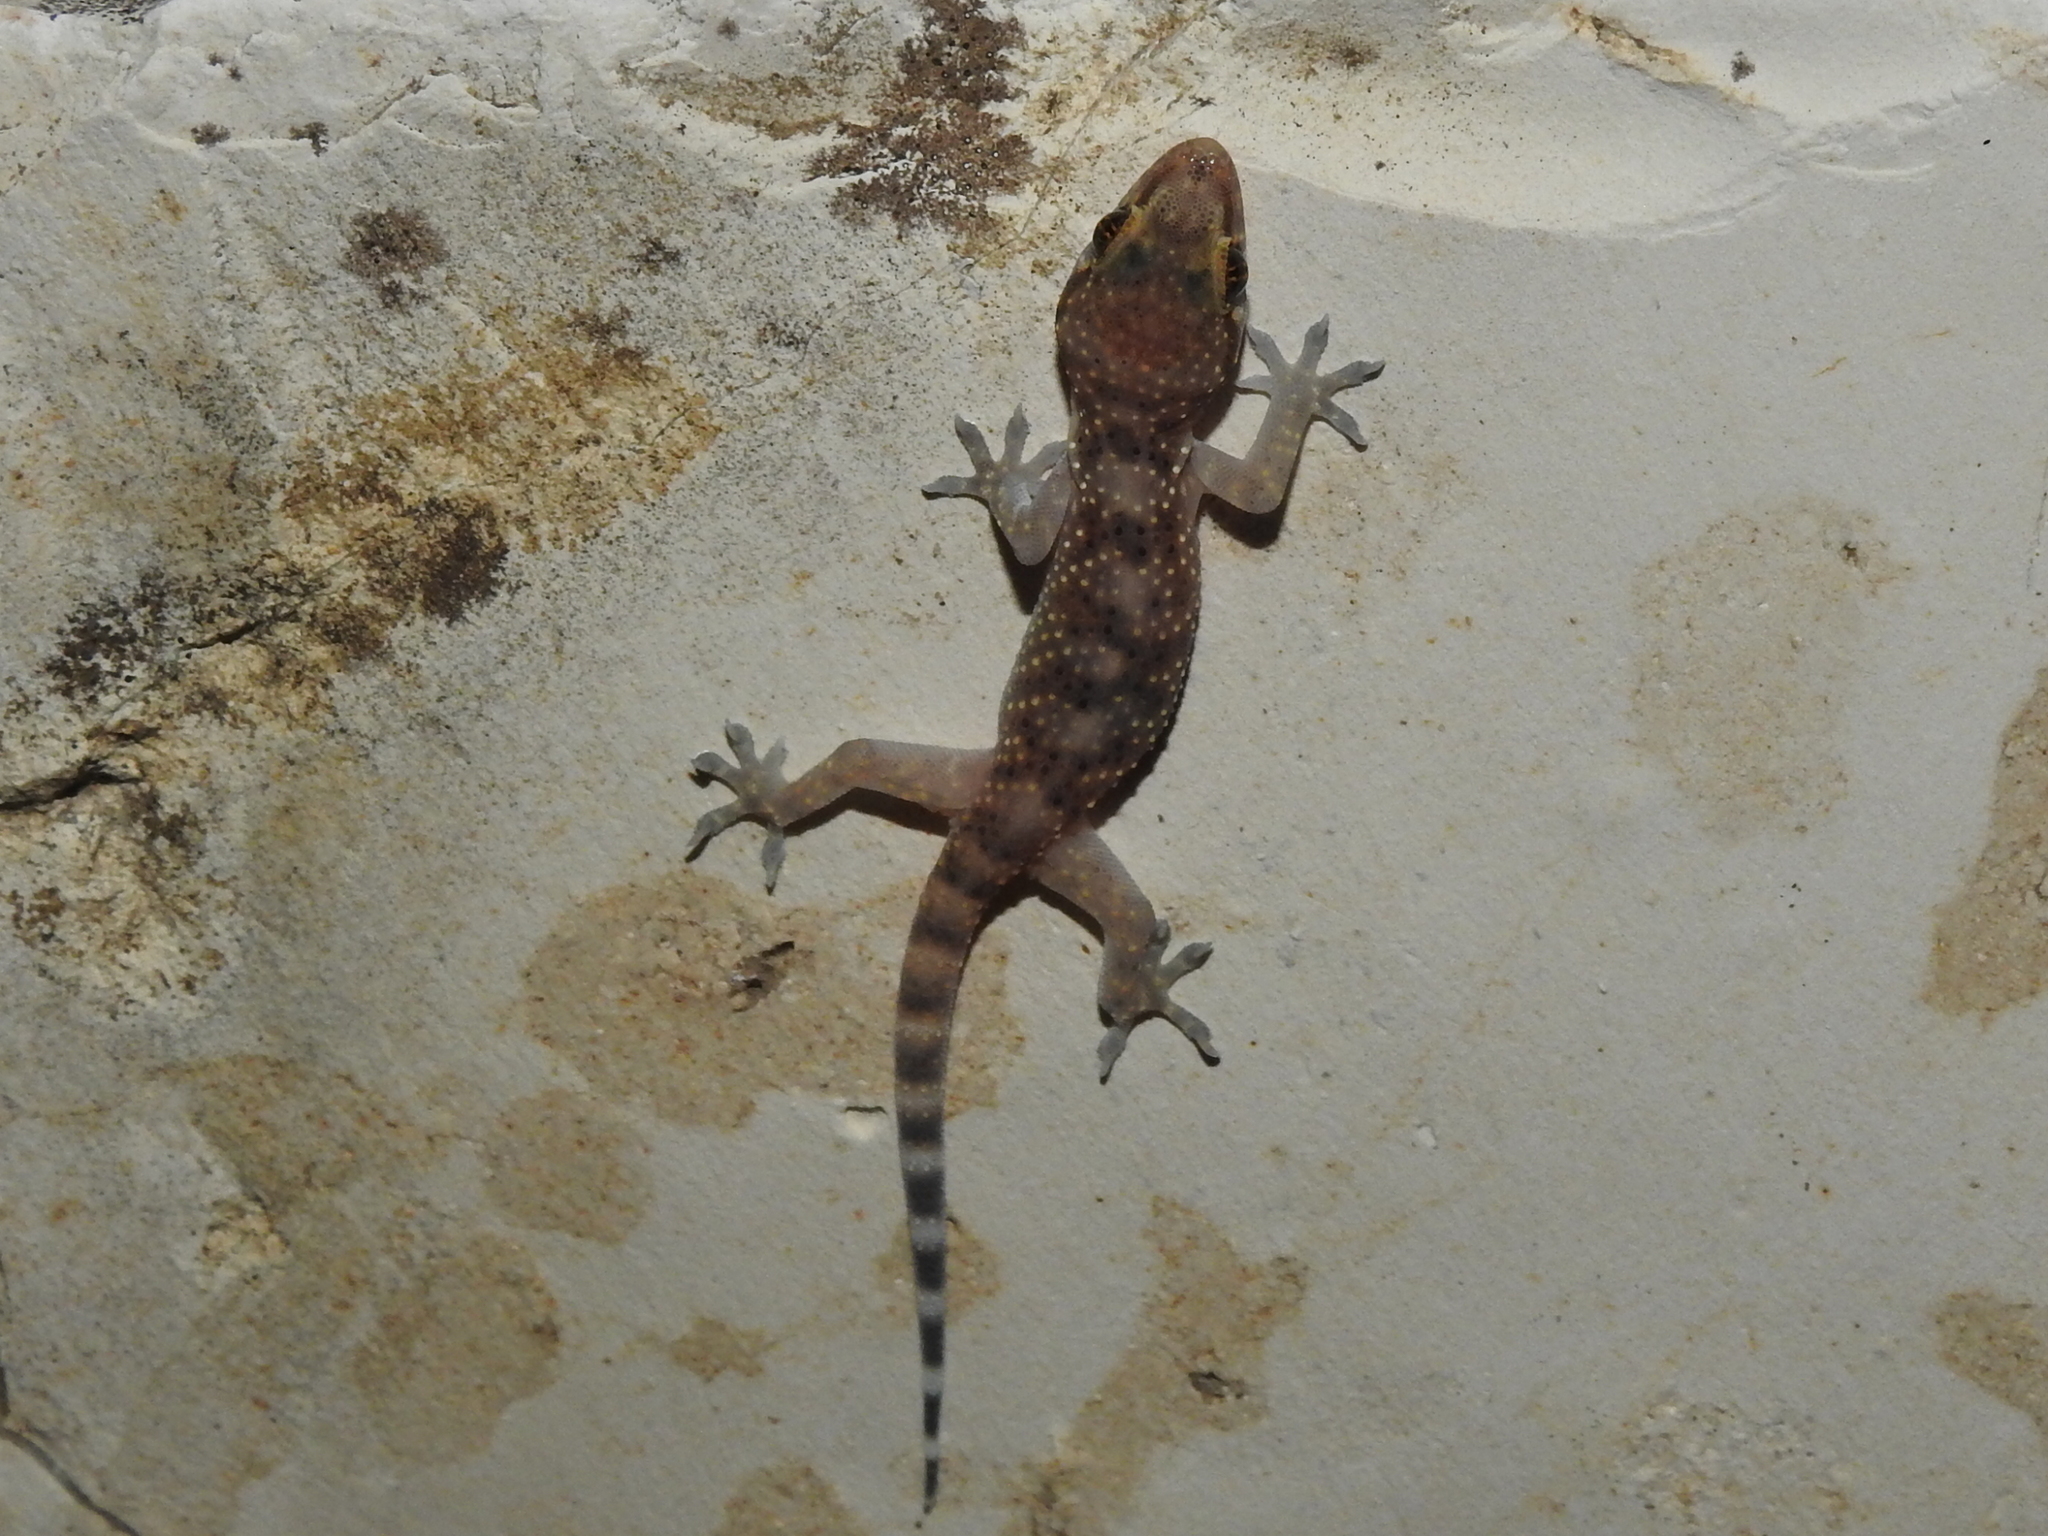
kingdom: Animalia
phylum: Chordata
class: Squamata
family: Gekkonidae
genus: Hemidactylus
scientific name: Hemidactylus turcicus
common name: Turkish gecko
